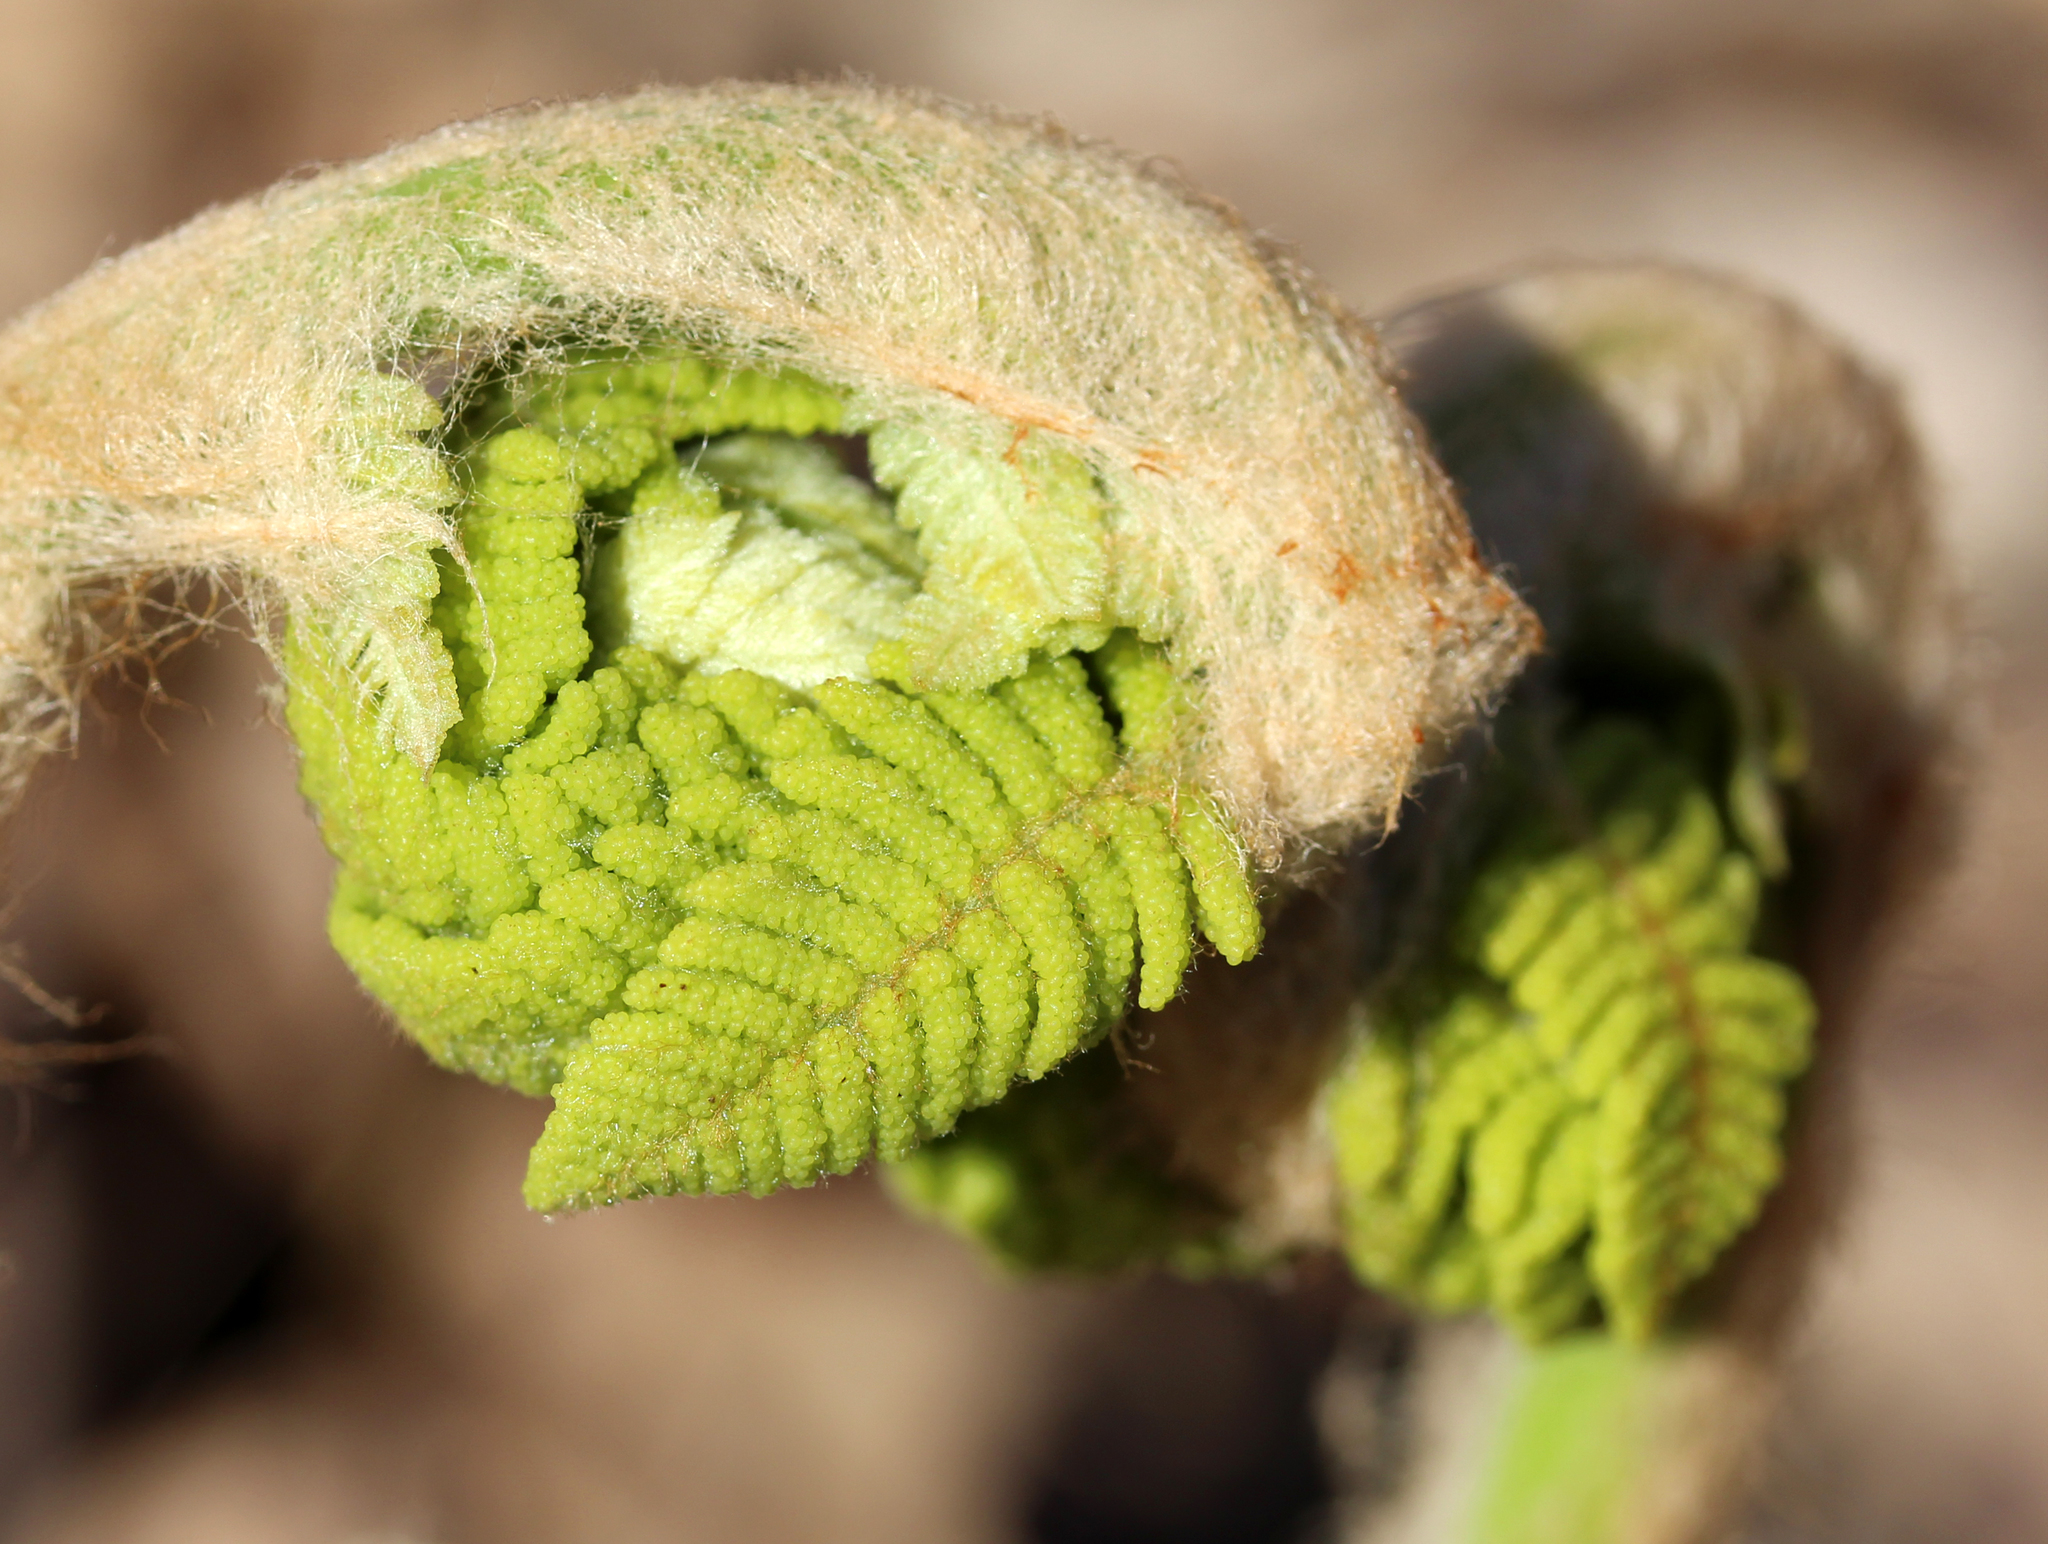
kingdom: Plantae
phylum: Tracheophyta
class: Polypodiopsida
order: Osmundales
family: Osmundaceae
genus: Claytosmunda
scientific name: Claytosmunda claytoniana
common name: Clayton's fern
